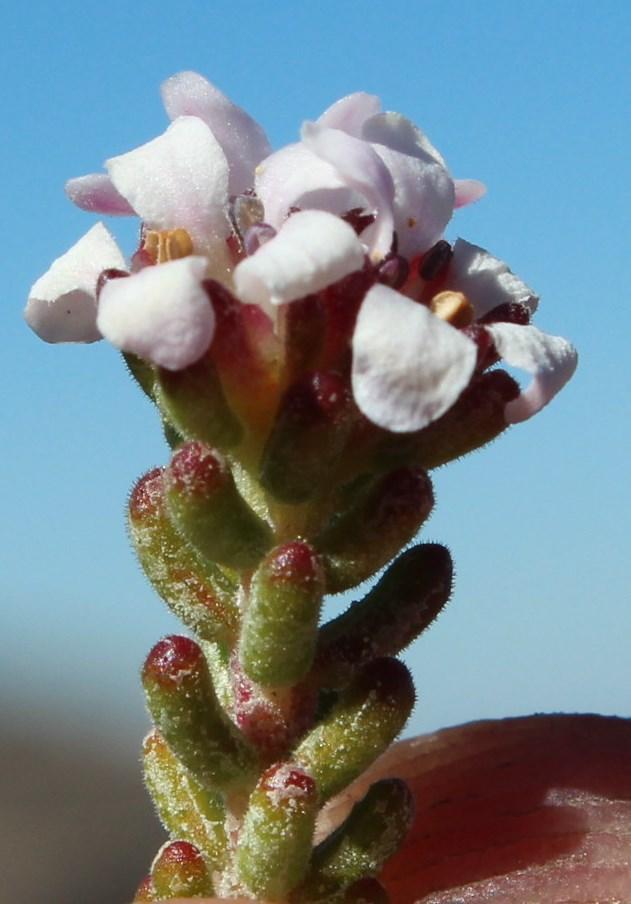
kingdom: Plantae
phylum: Tracheophyta
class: Magnoliopsida
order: Sapindales
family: Rutaceae
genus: Acmadenia
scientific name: Acmadenia teretifolia
